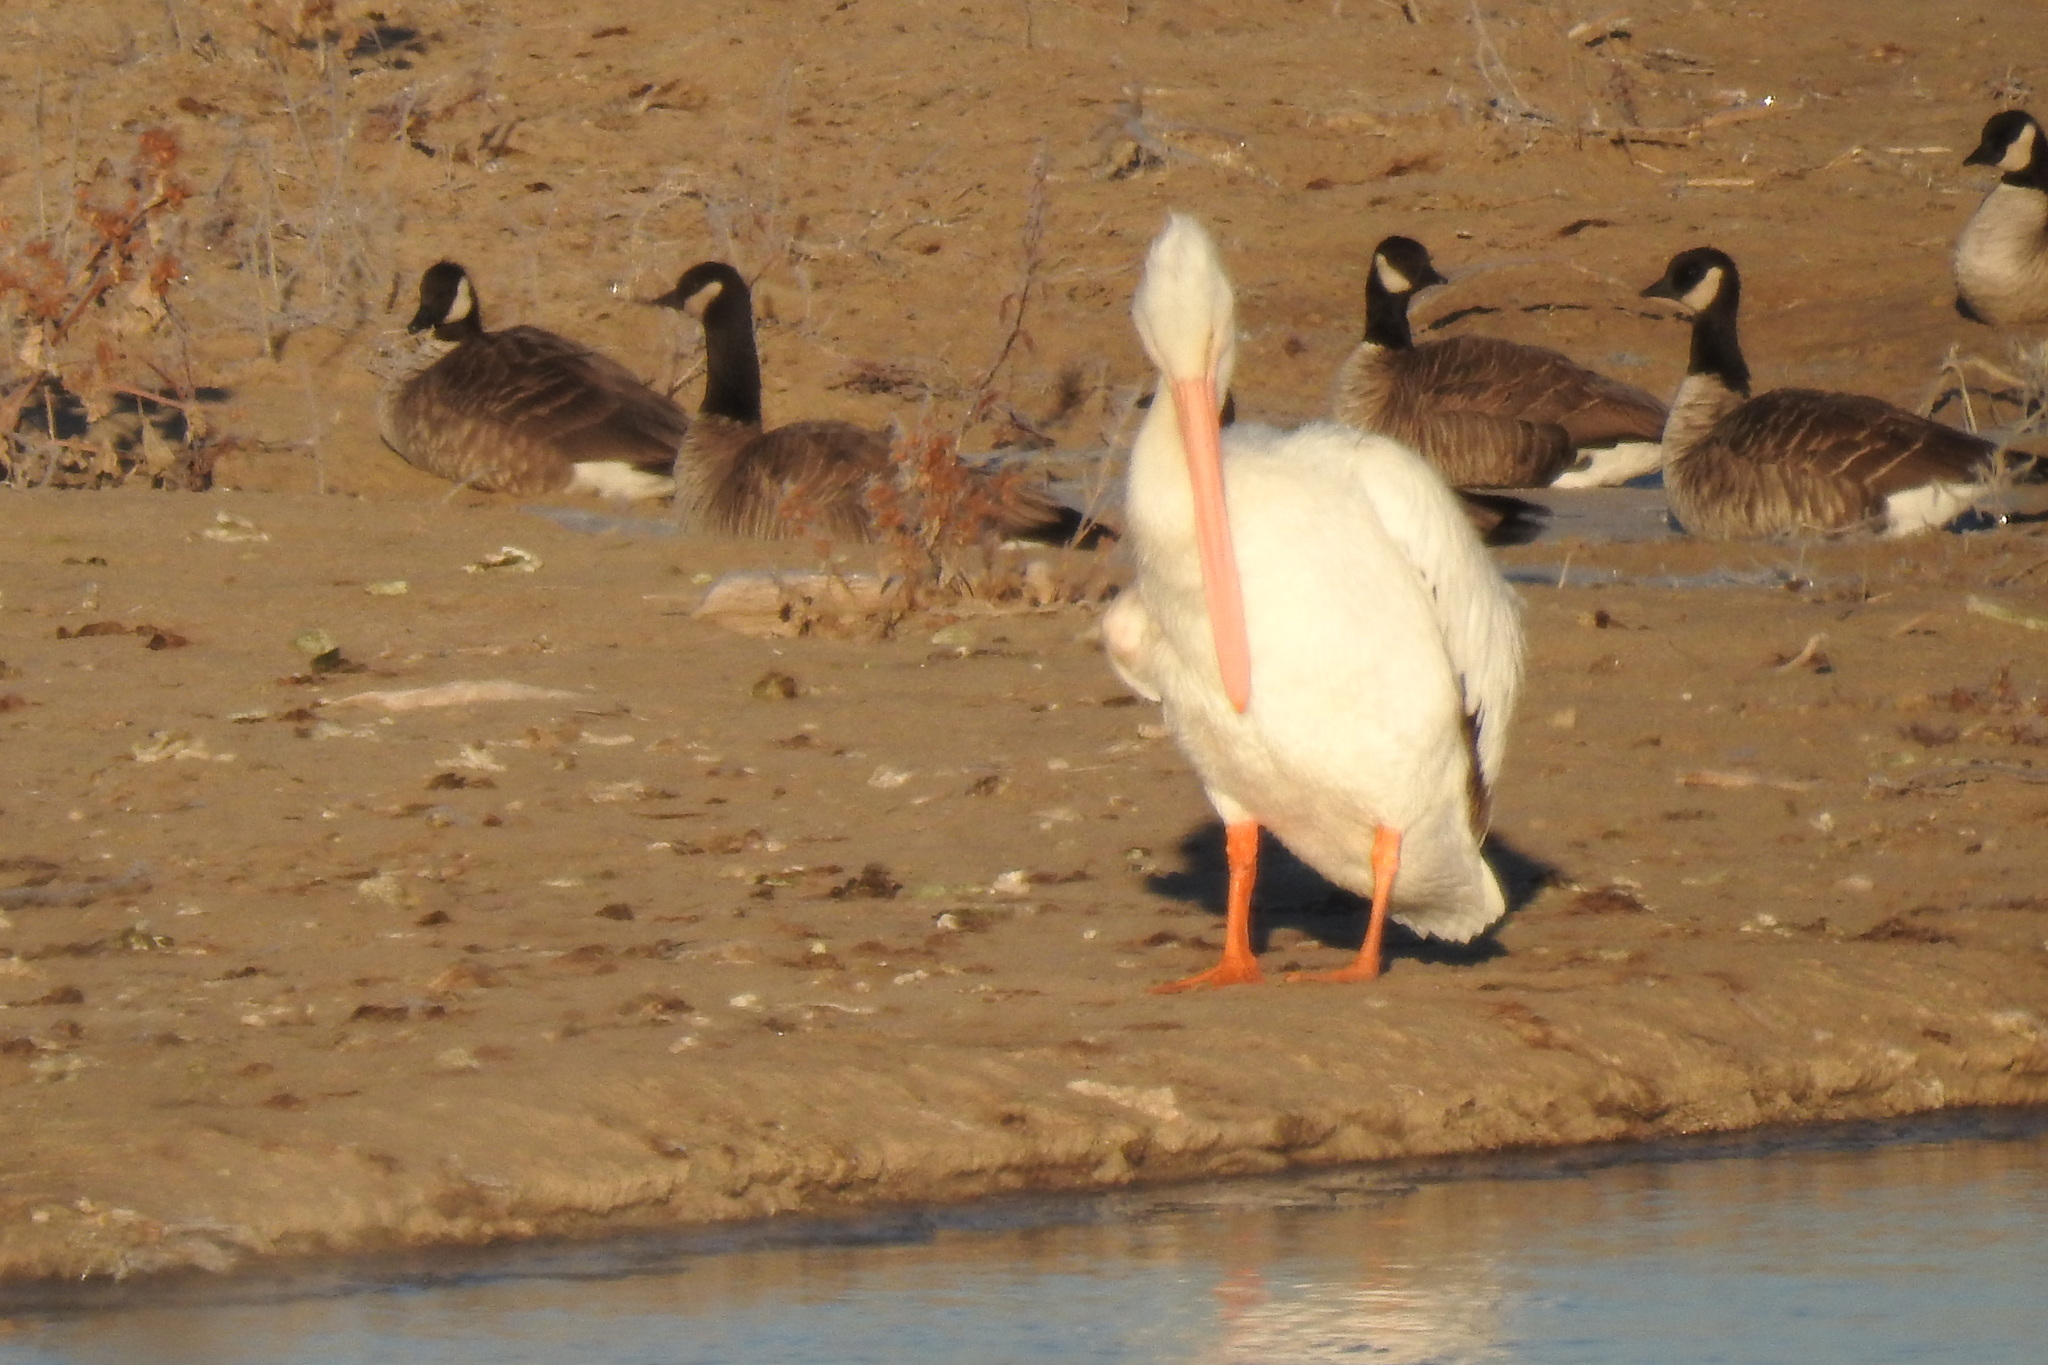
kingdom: Animalia
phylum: Chordata
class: Aves
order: Pelecaniformes
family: Pelecanidae
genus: Pelecanus
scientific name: Pelecanus erythrorhynchos
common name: American white pelican
